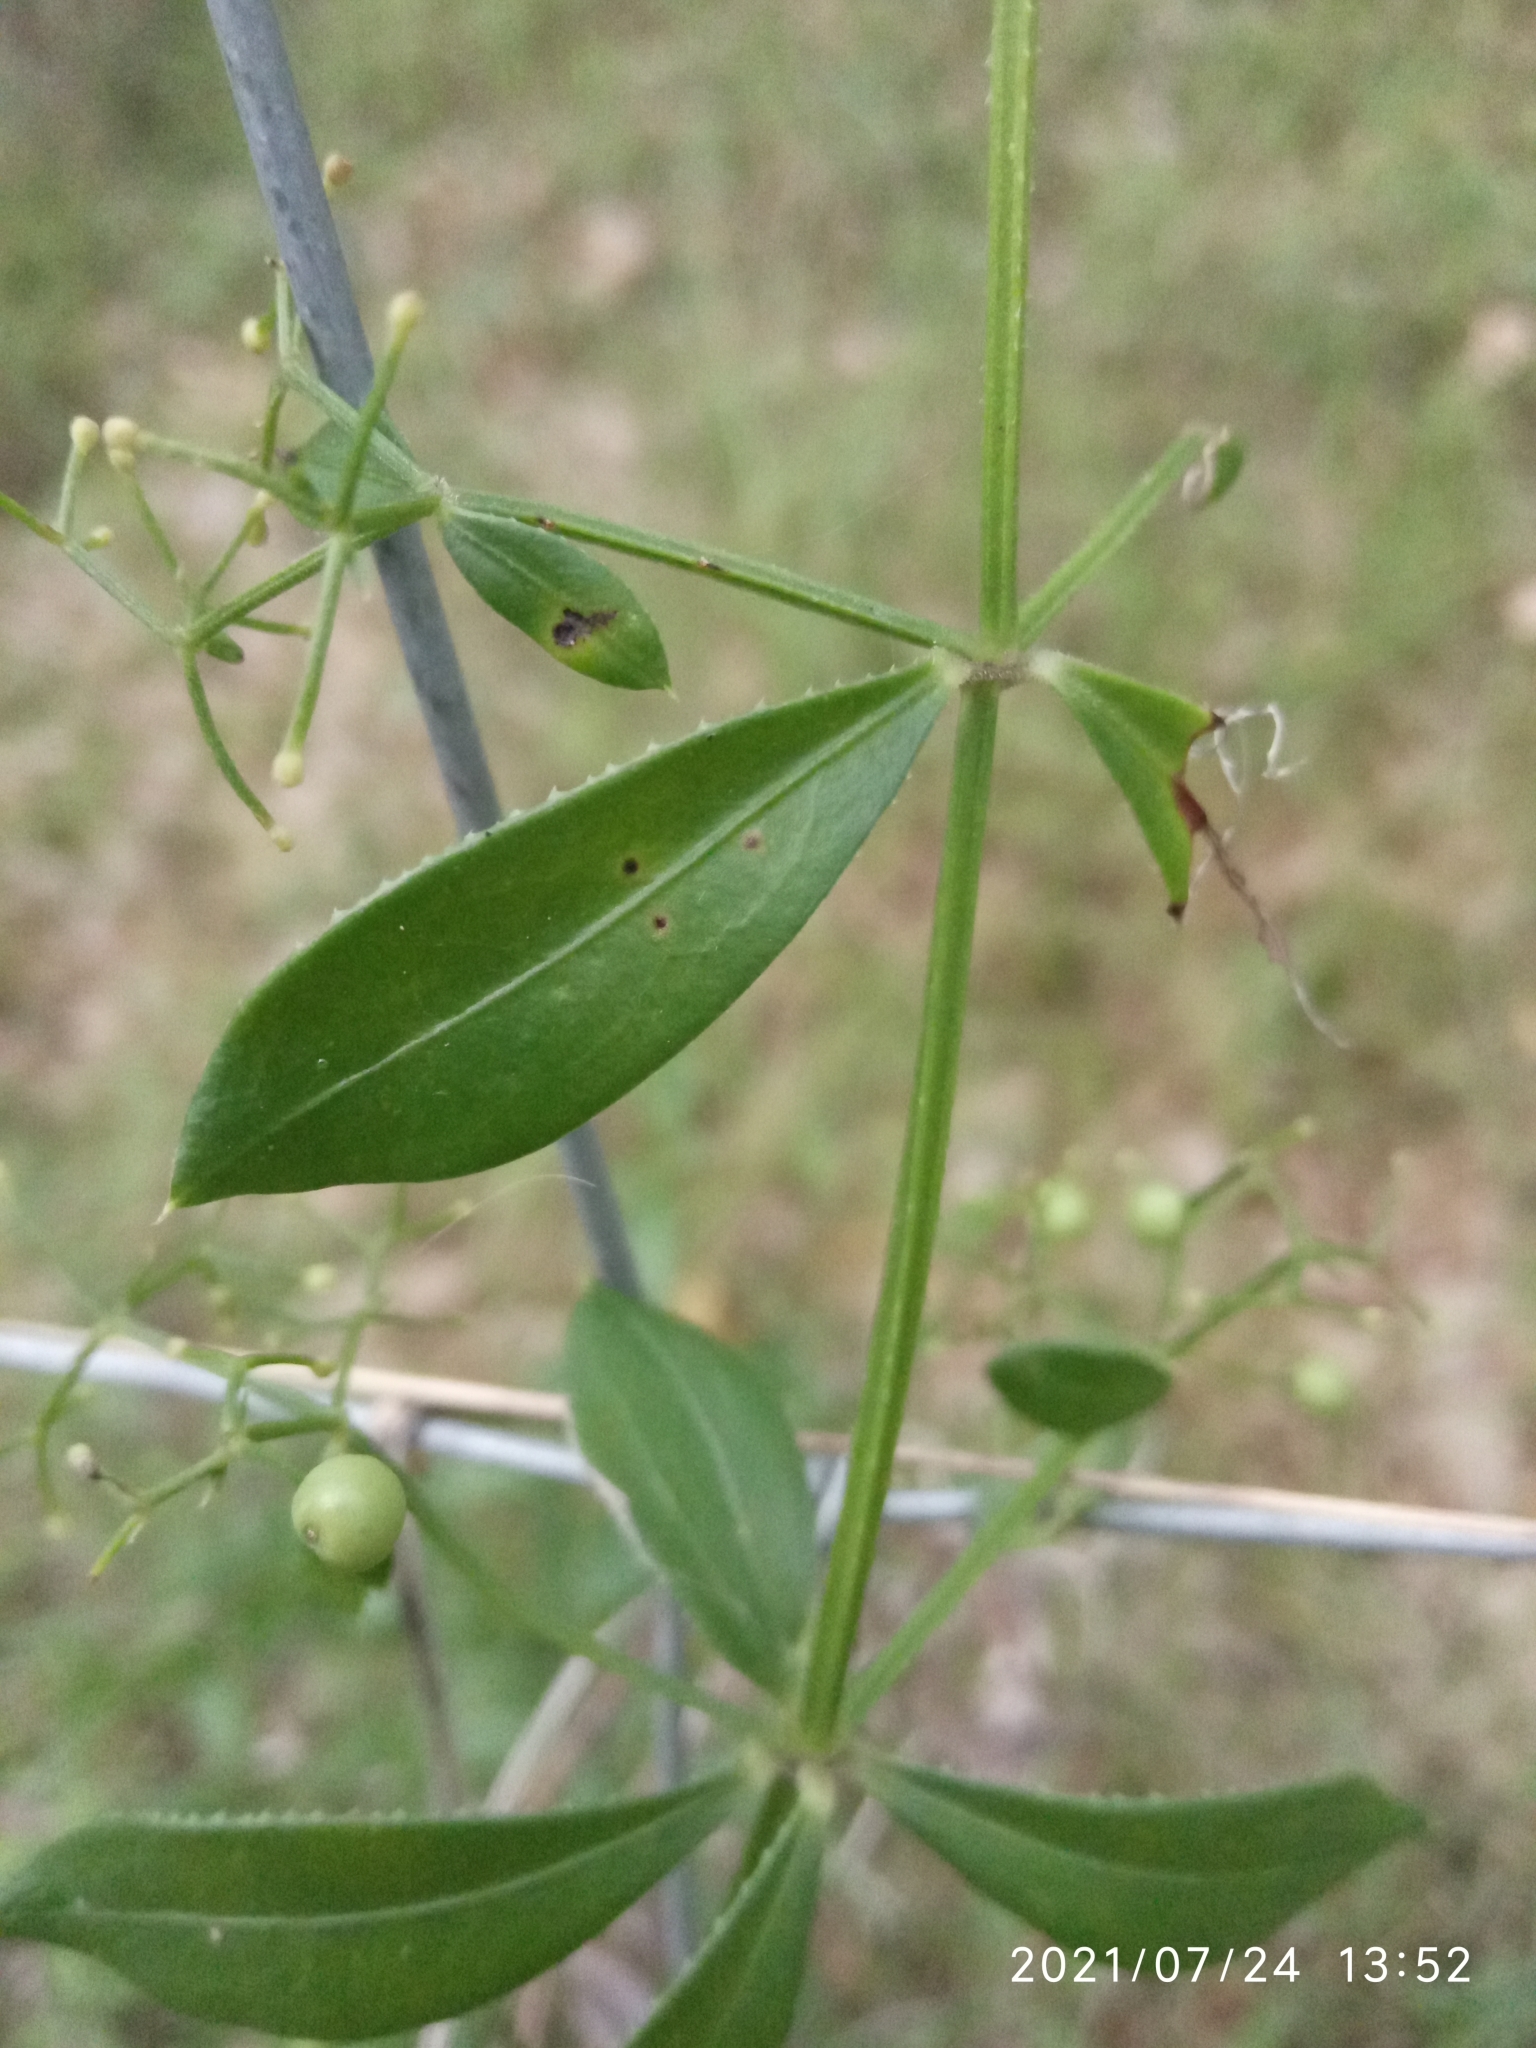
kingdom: Plantae
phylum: Tracheophyta
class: Magnoliopsida
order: Gentianales
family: Rubiaceae
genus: Rubia
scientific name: Rubia peregrina
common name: Wild madder
